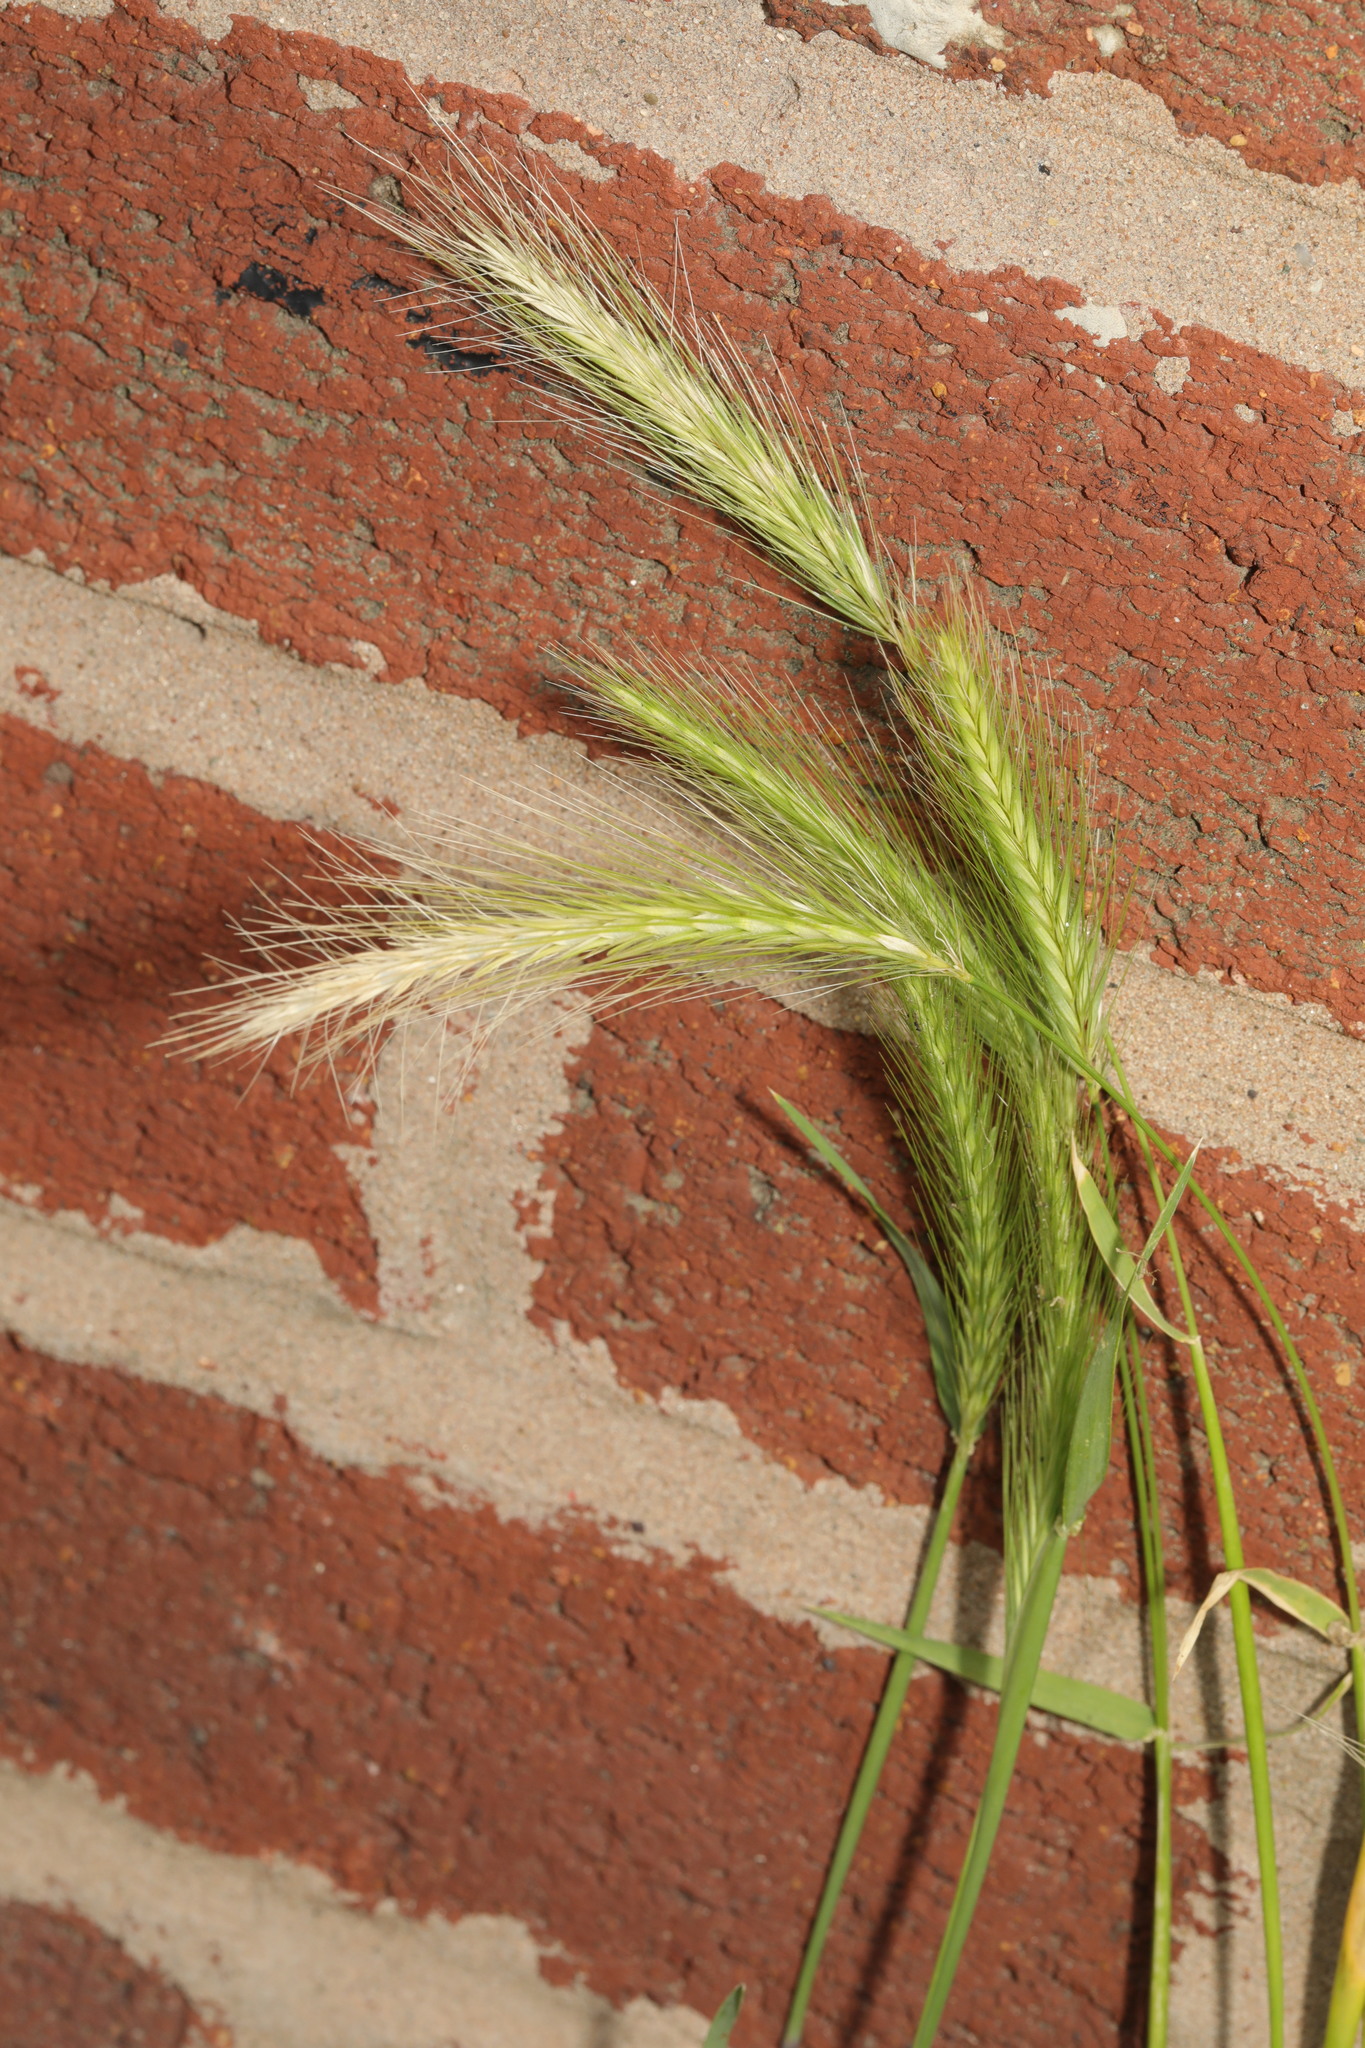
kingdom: Plantae
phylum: Tracheophyta
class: Liliopsida
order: Poales
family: Poaceae
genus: Hordeum
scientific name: Hordeum murinum
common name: Wall barley
